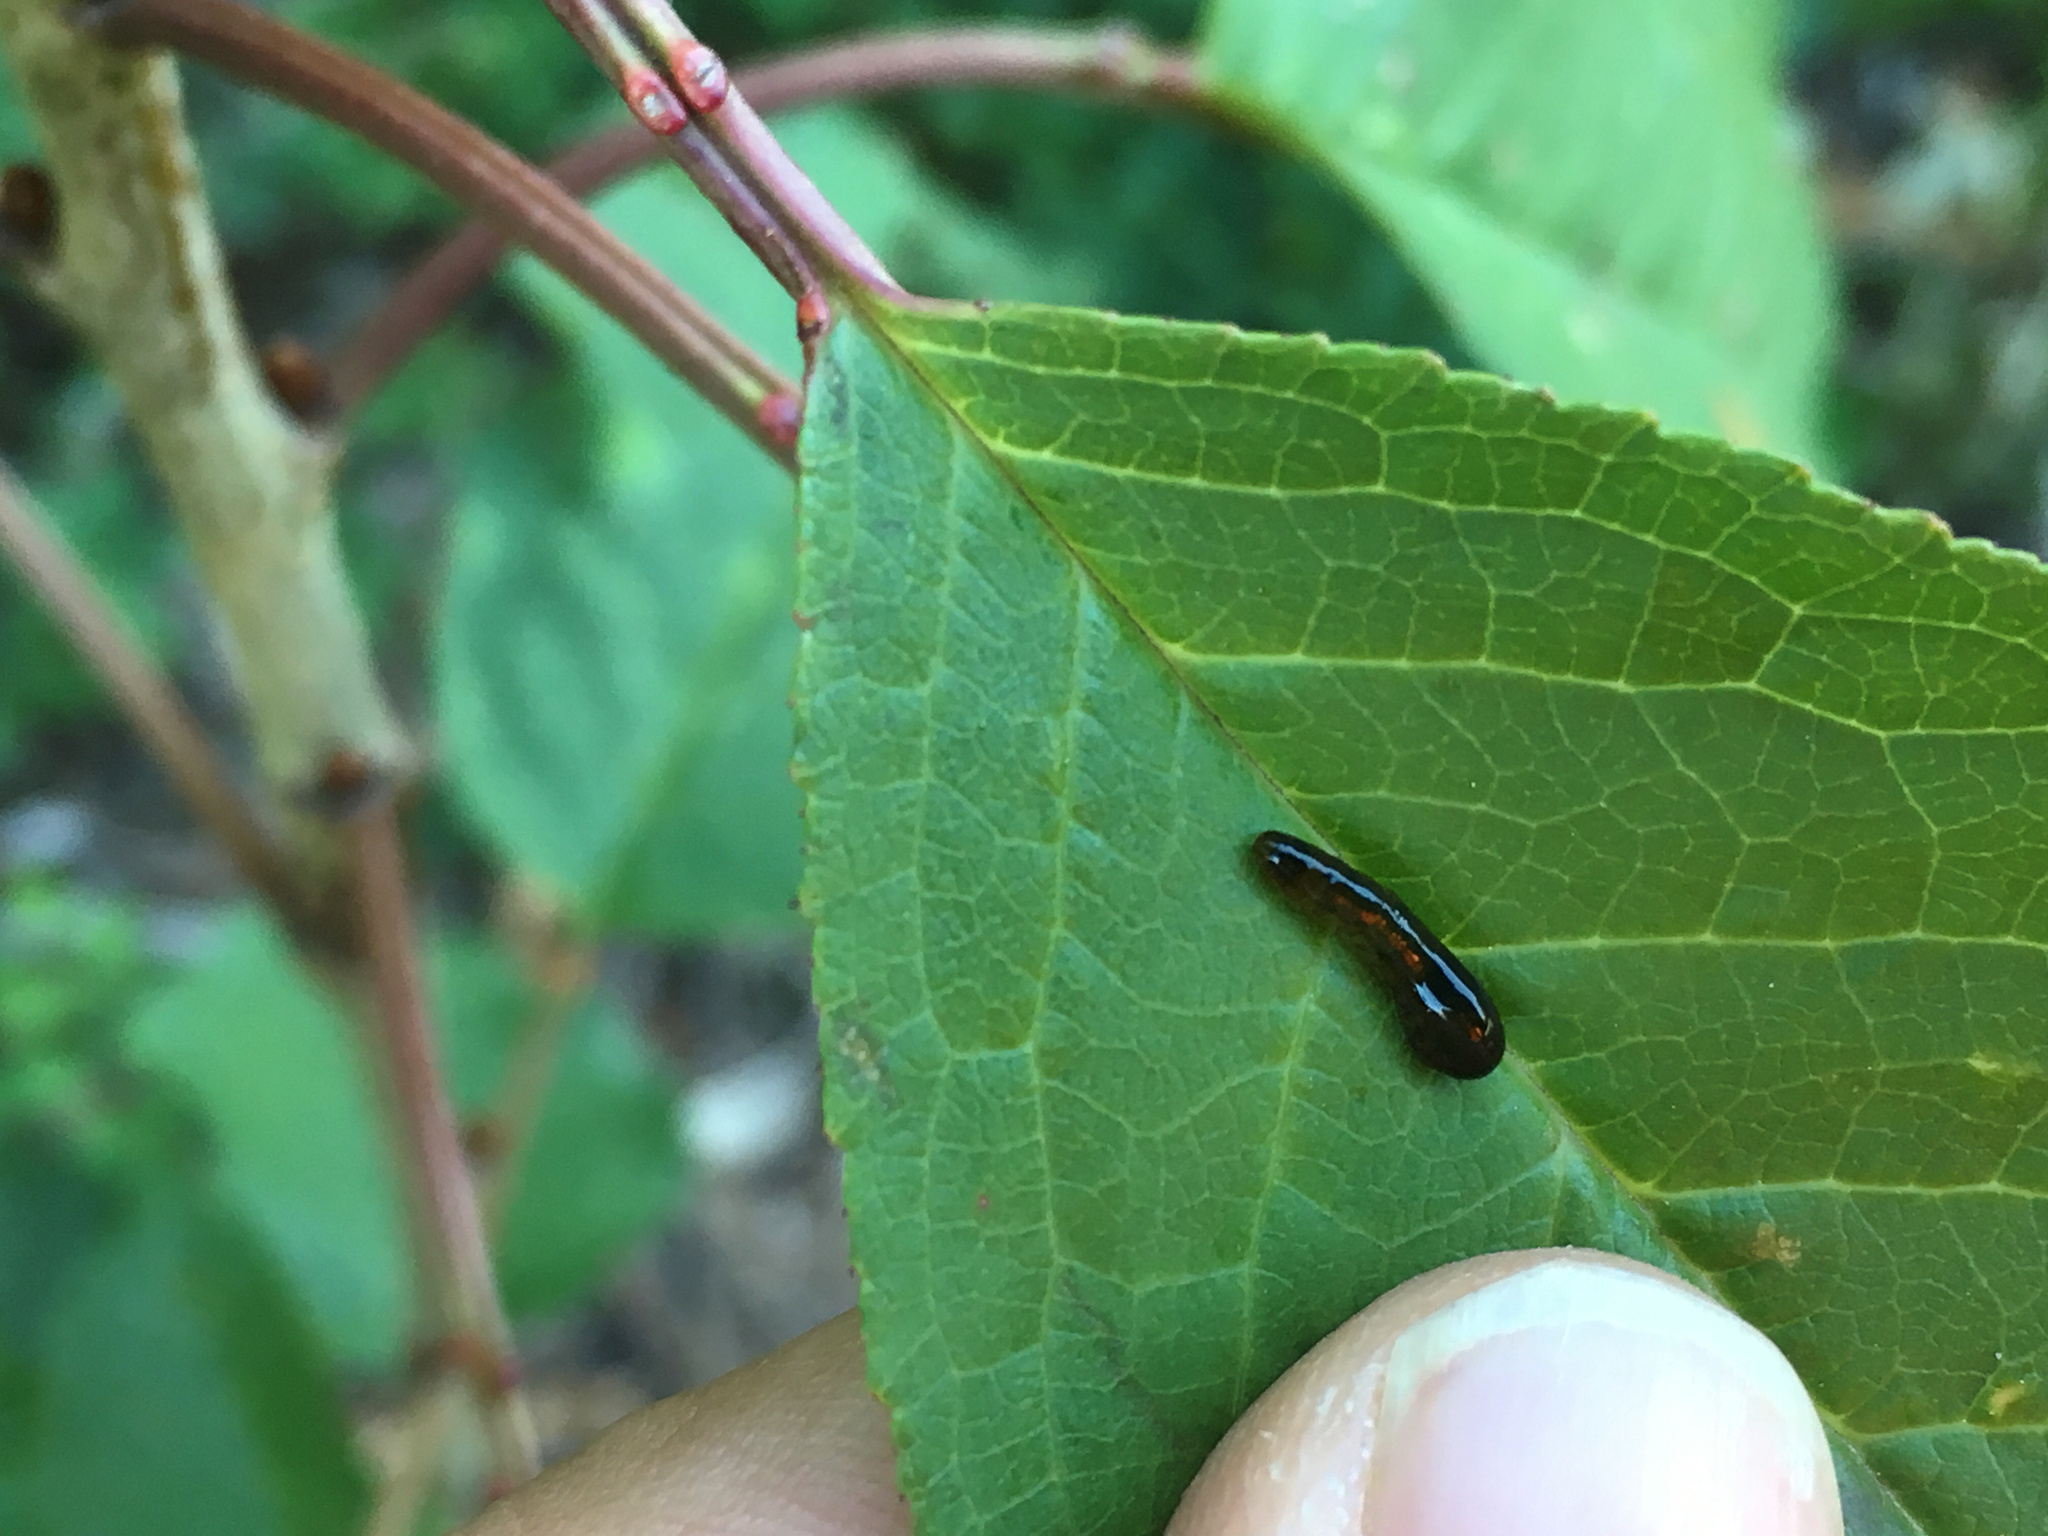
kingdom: Animalia
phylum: Arthropoda
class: Insecta
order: Hymenoptera
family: Tenthredinidae
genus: Caliroa
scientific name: Caliroa cerasi
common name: Pear sawfly
